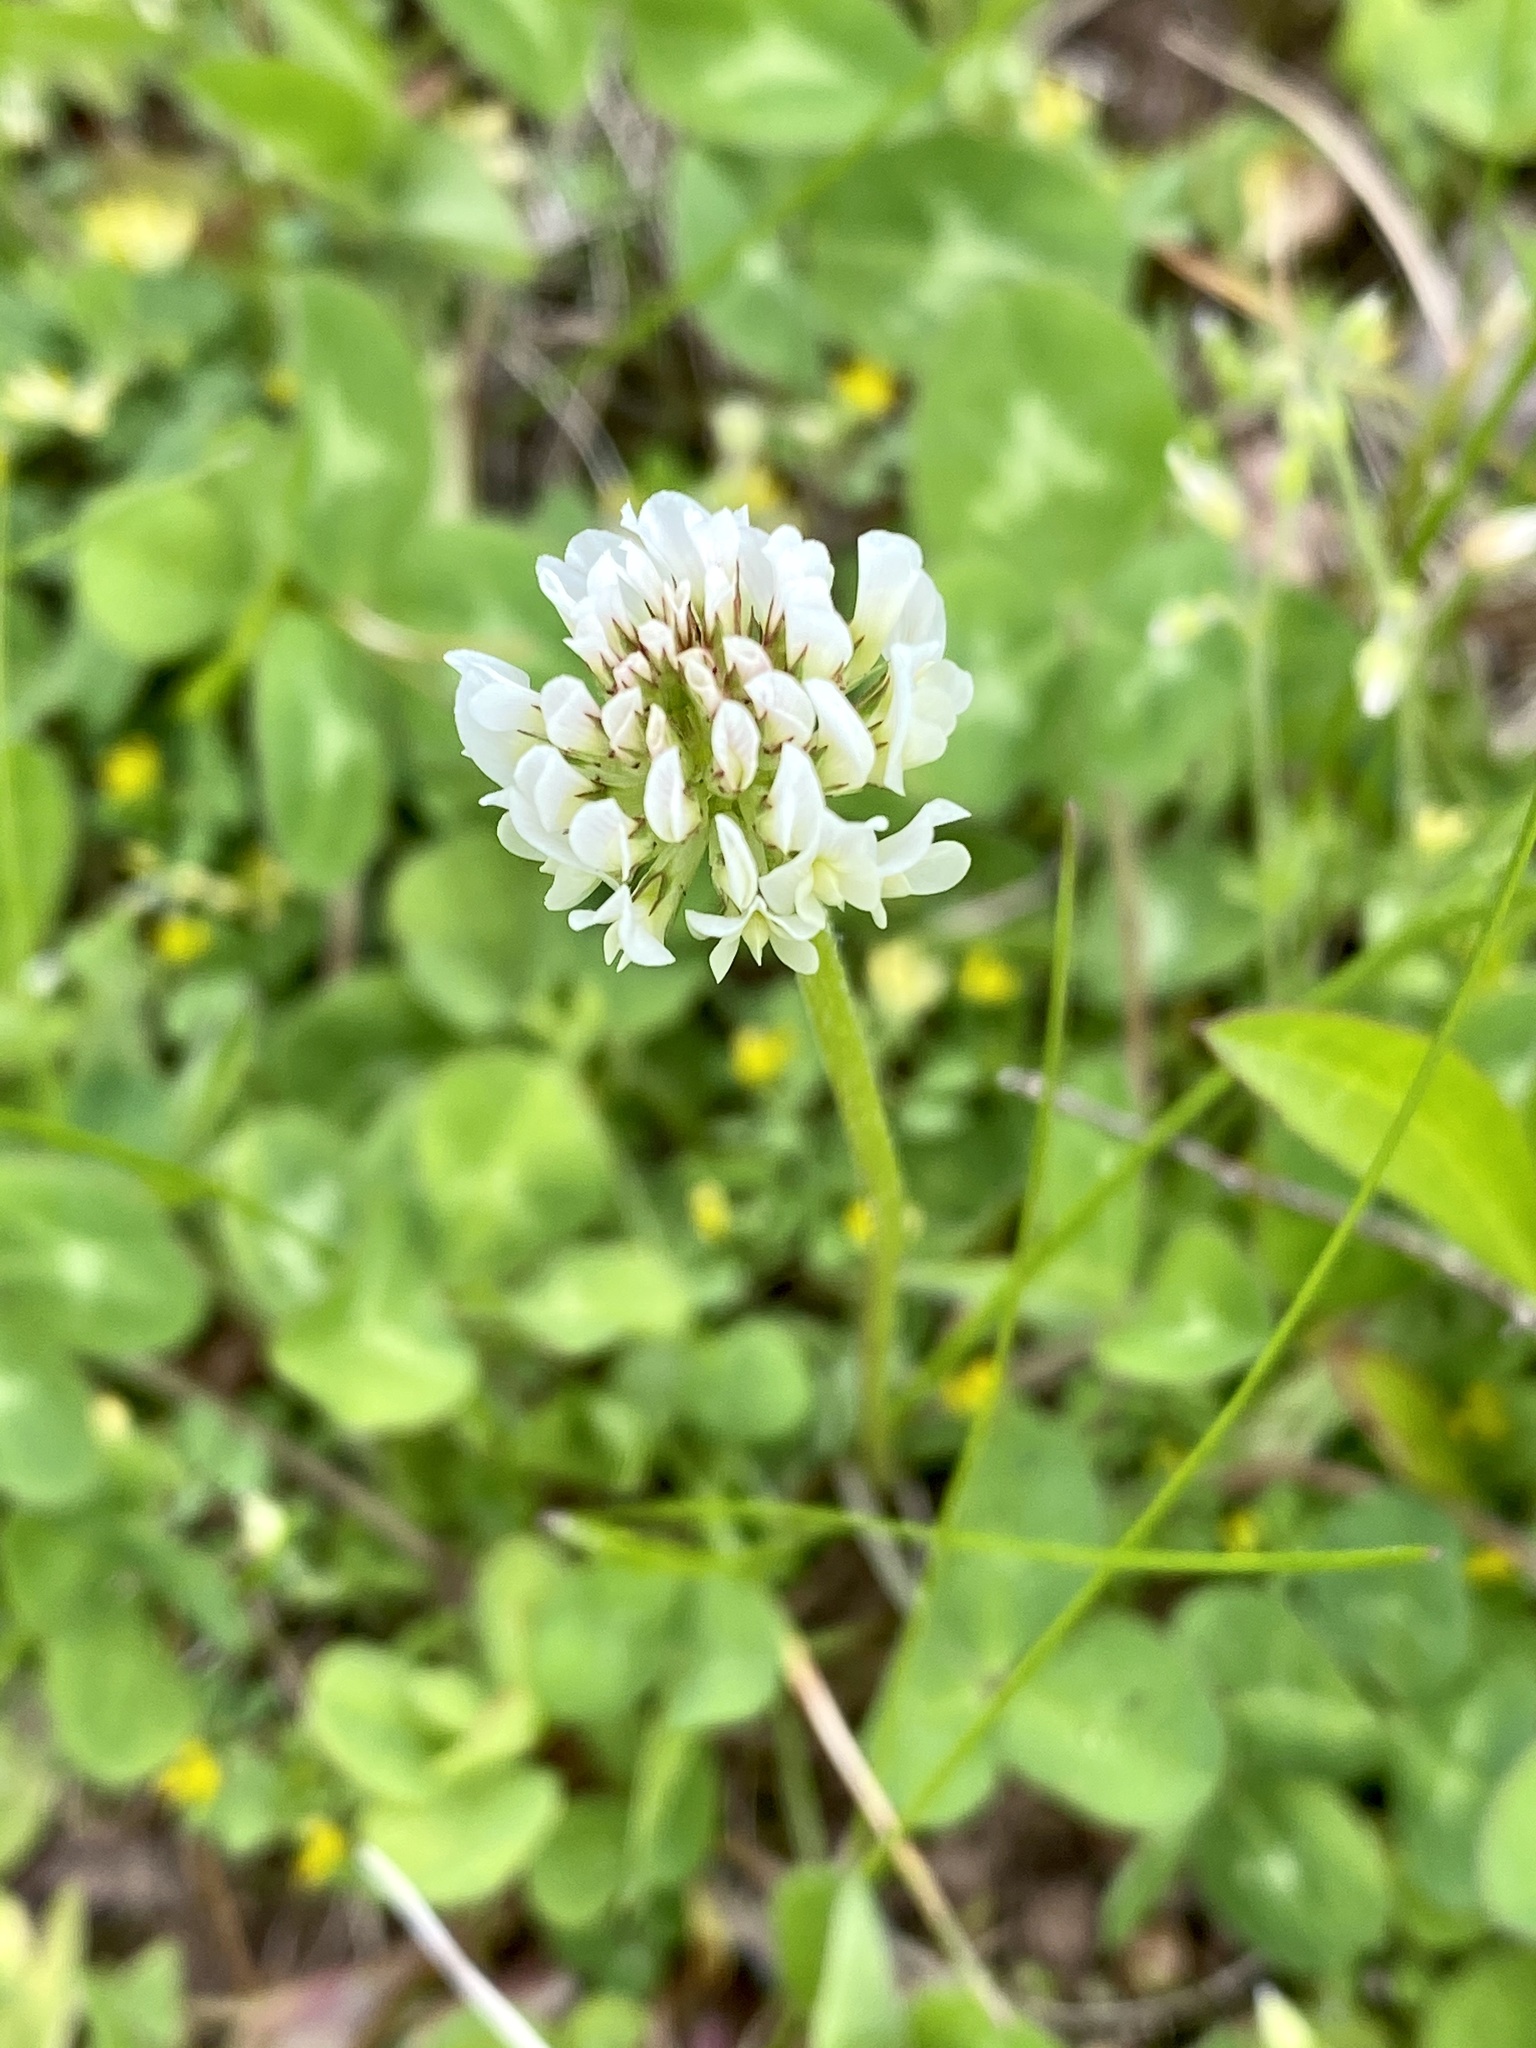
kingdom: Plantae
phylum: Tracheophyta
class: Magnoliopsida
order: Fabales
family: Fabaceae
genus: Trifolium
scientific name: Trifolium repens
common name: White clover
